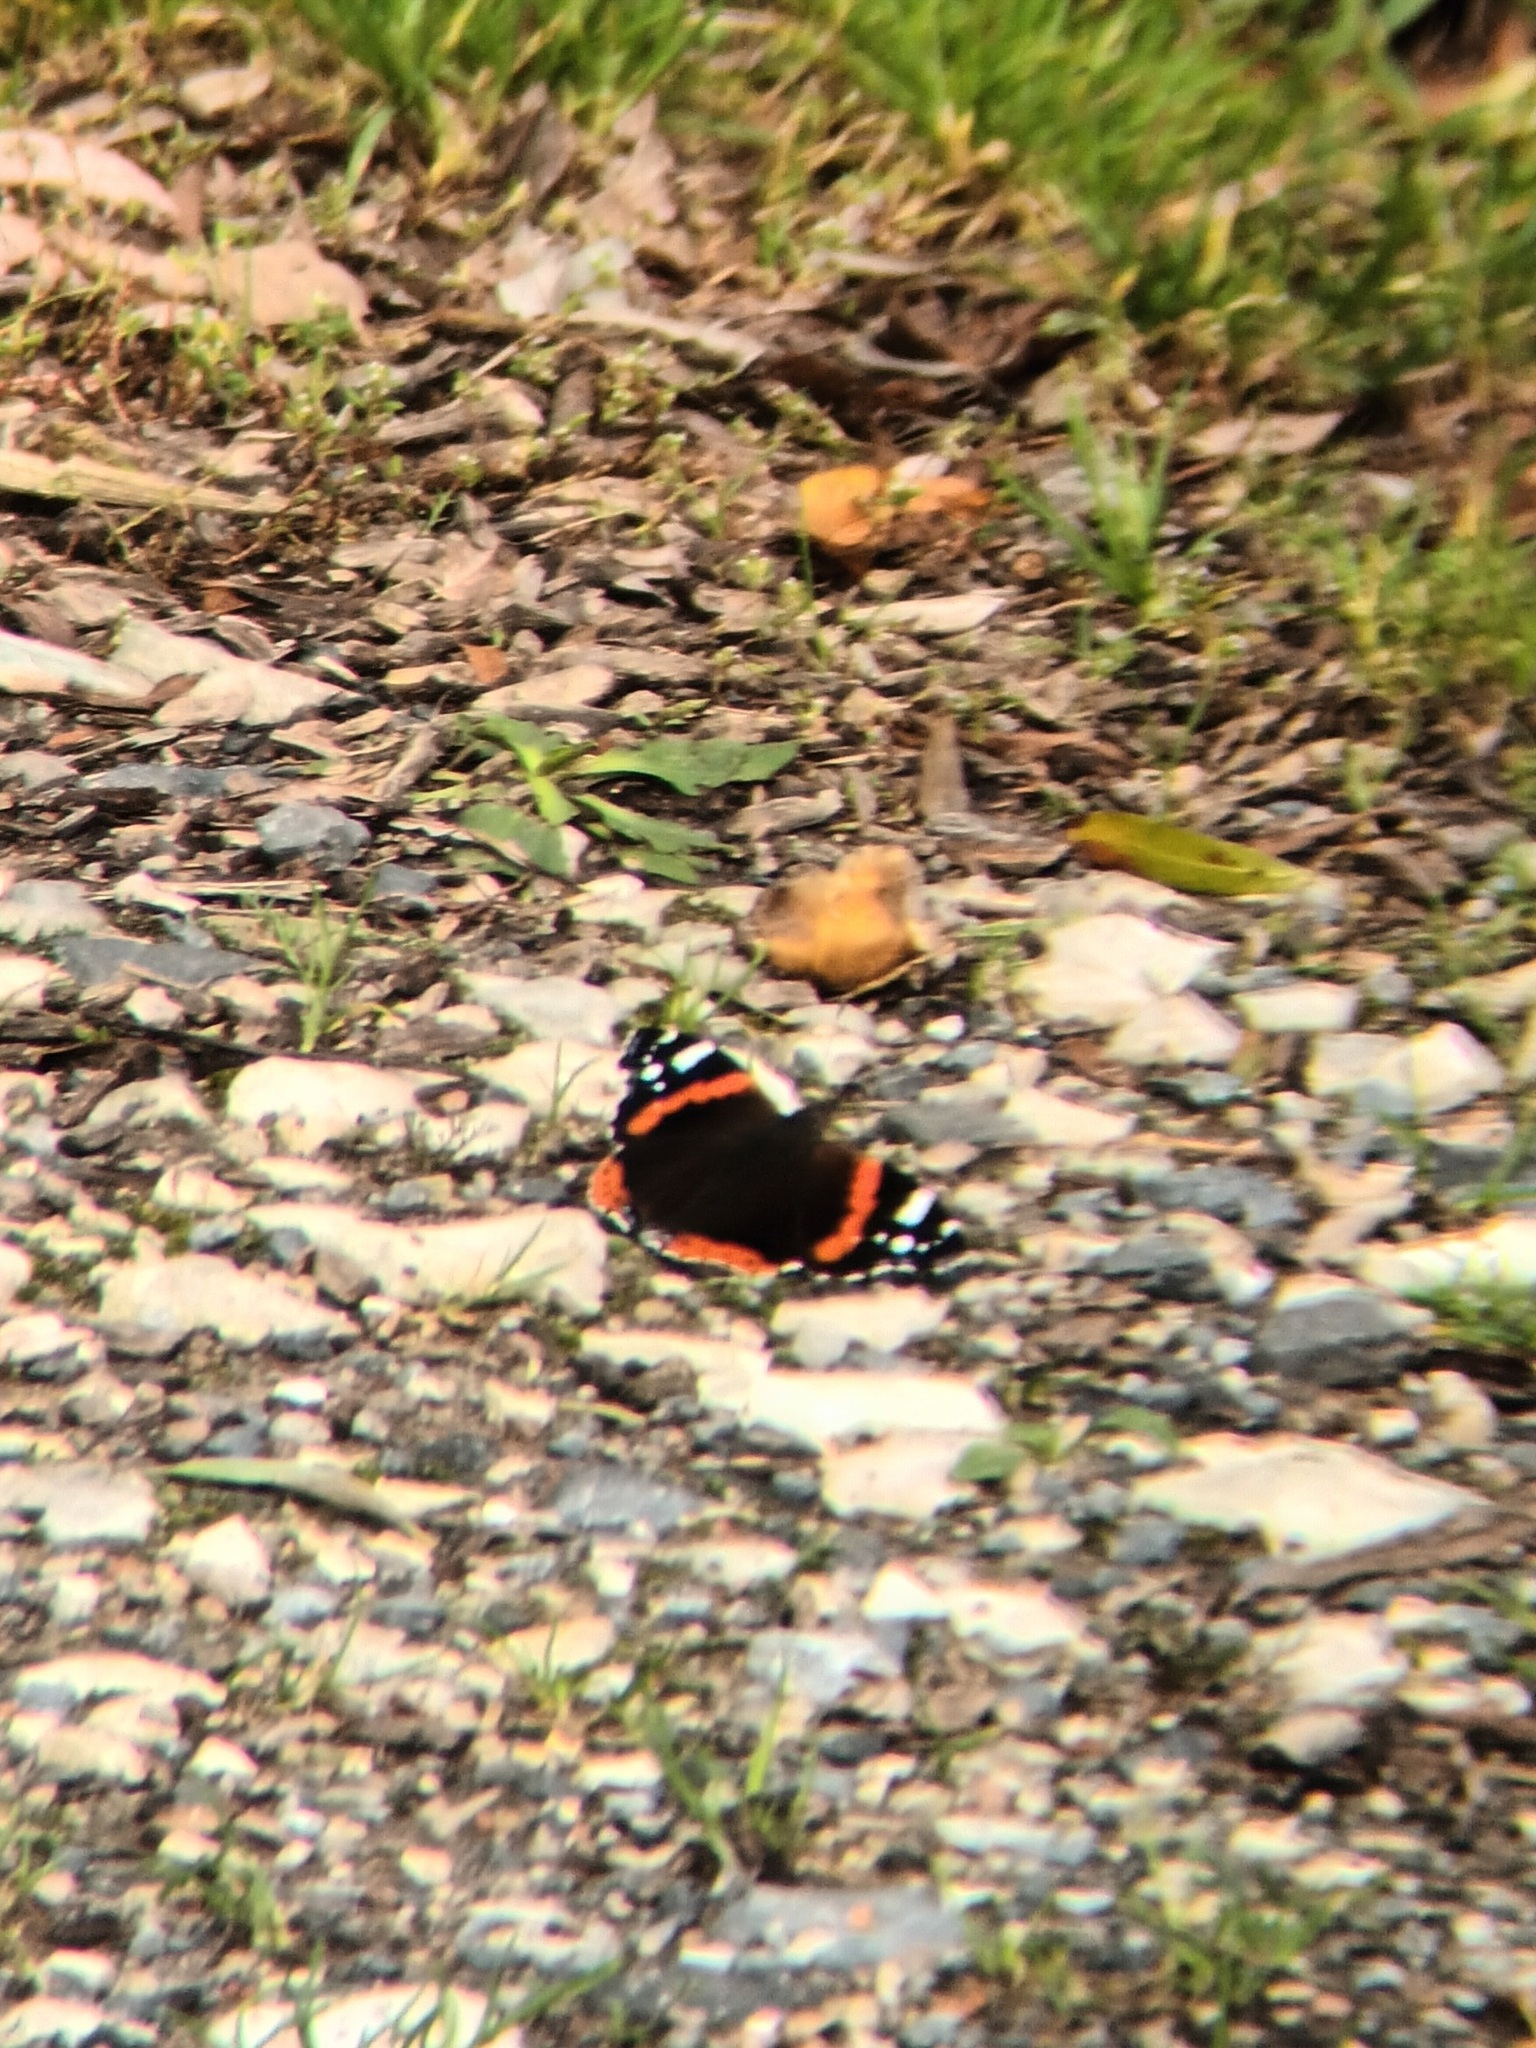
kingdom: Animalia
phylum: Arthropoda
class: Insecta
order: Lepidoptera
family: Nymphalidae
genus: Vanessa
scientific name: Vanessa atalanta
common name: Red admiral
